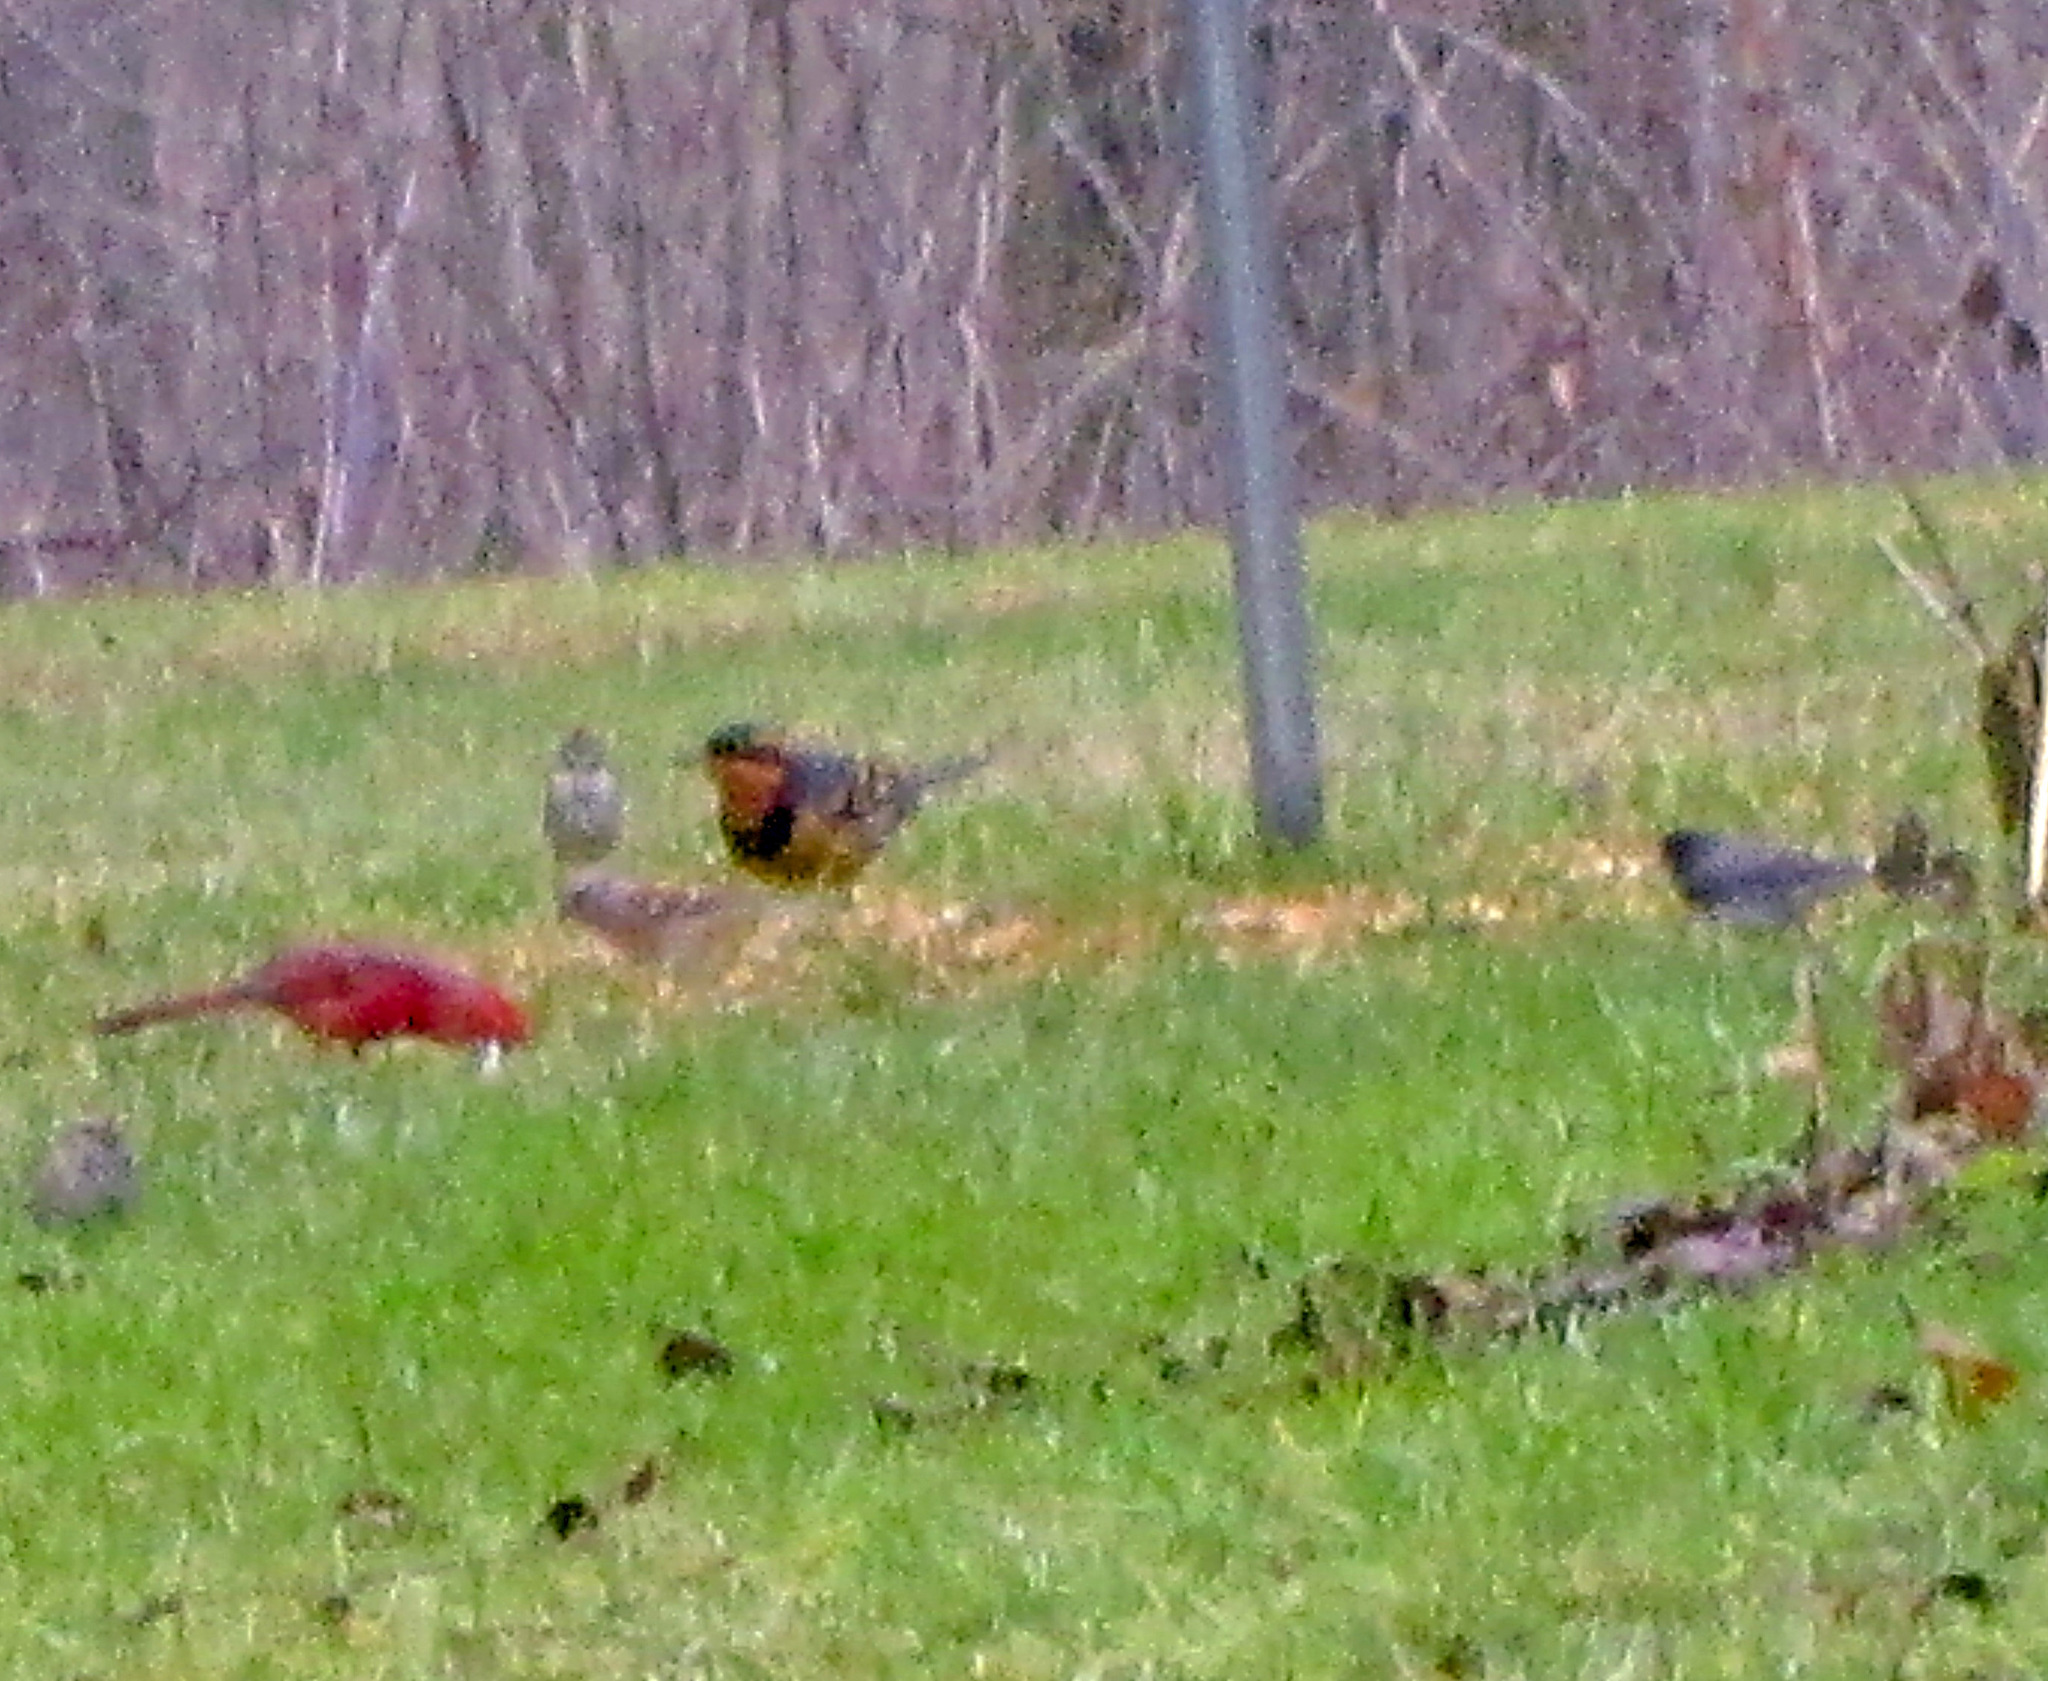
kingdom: Animalia
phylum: Chordata
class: Aves
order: Passeriformes
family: Turdidae
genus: Ixoreus
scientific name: Ixoreus naevius
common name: Varied thrush
